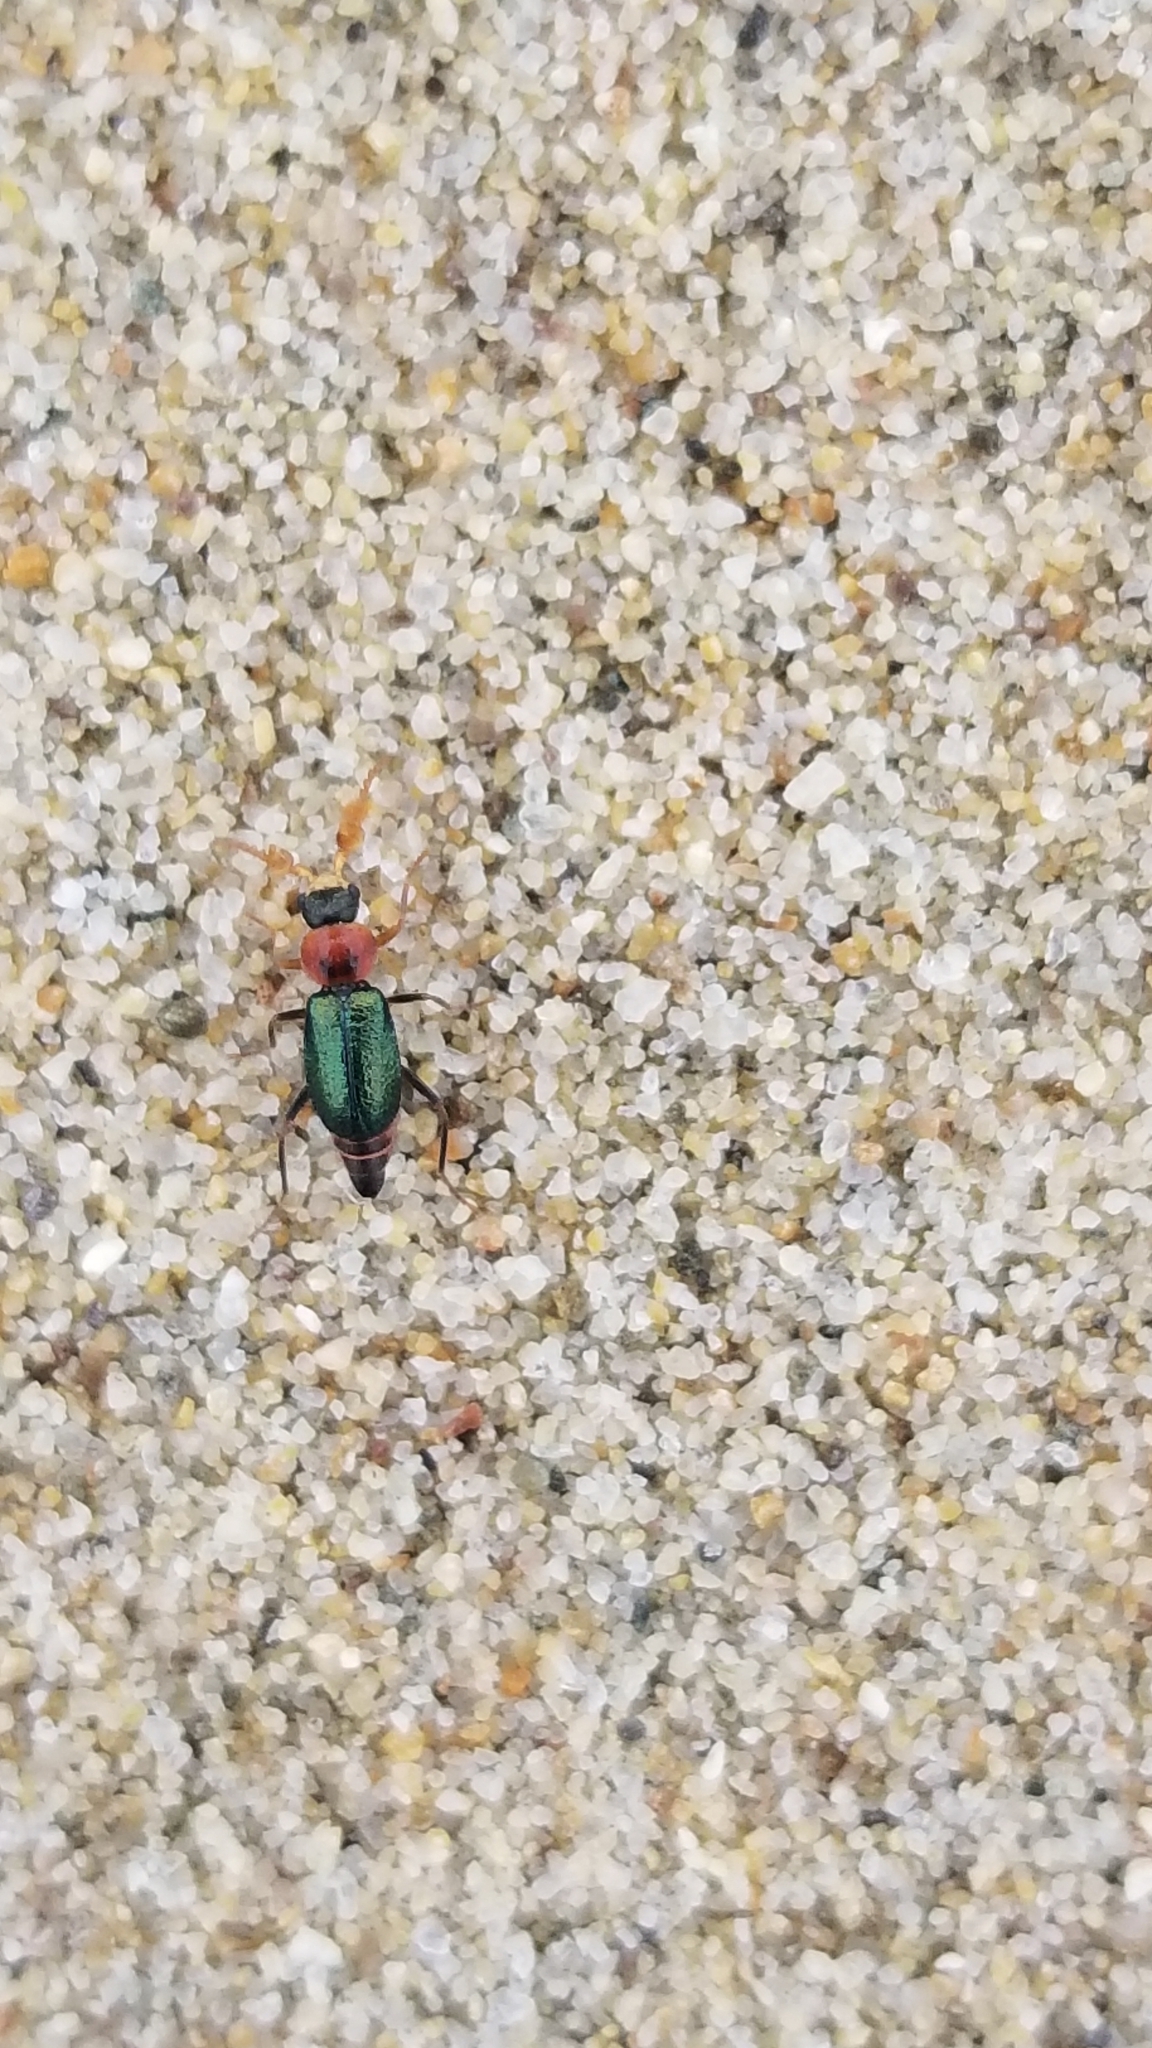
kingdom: Animalia
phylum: Arthropoda
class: Insecta
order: Coleoptera
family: Melyridae
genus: Collops
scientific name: Collops cribrosus
